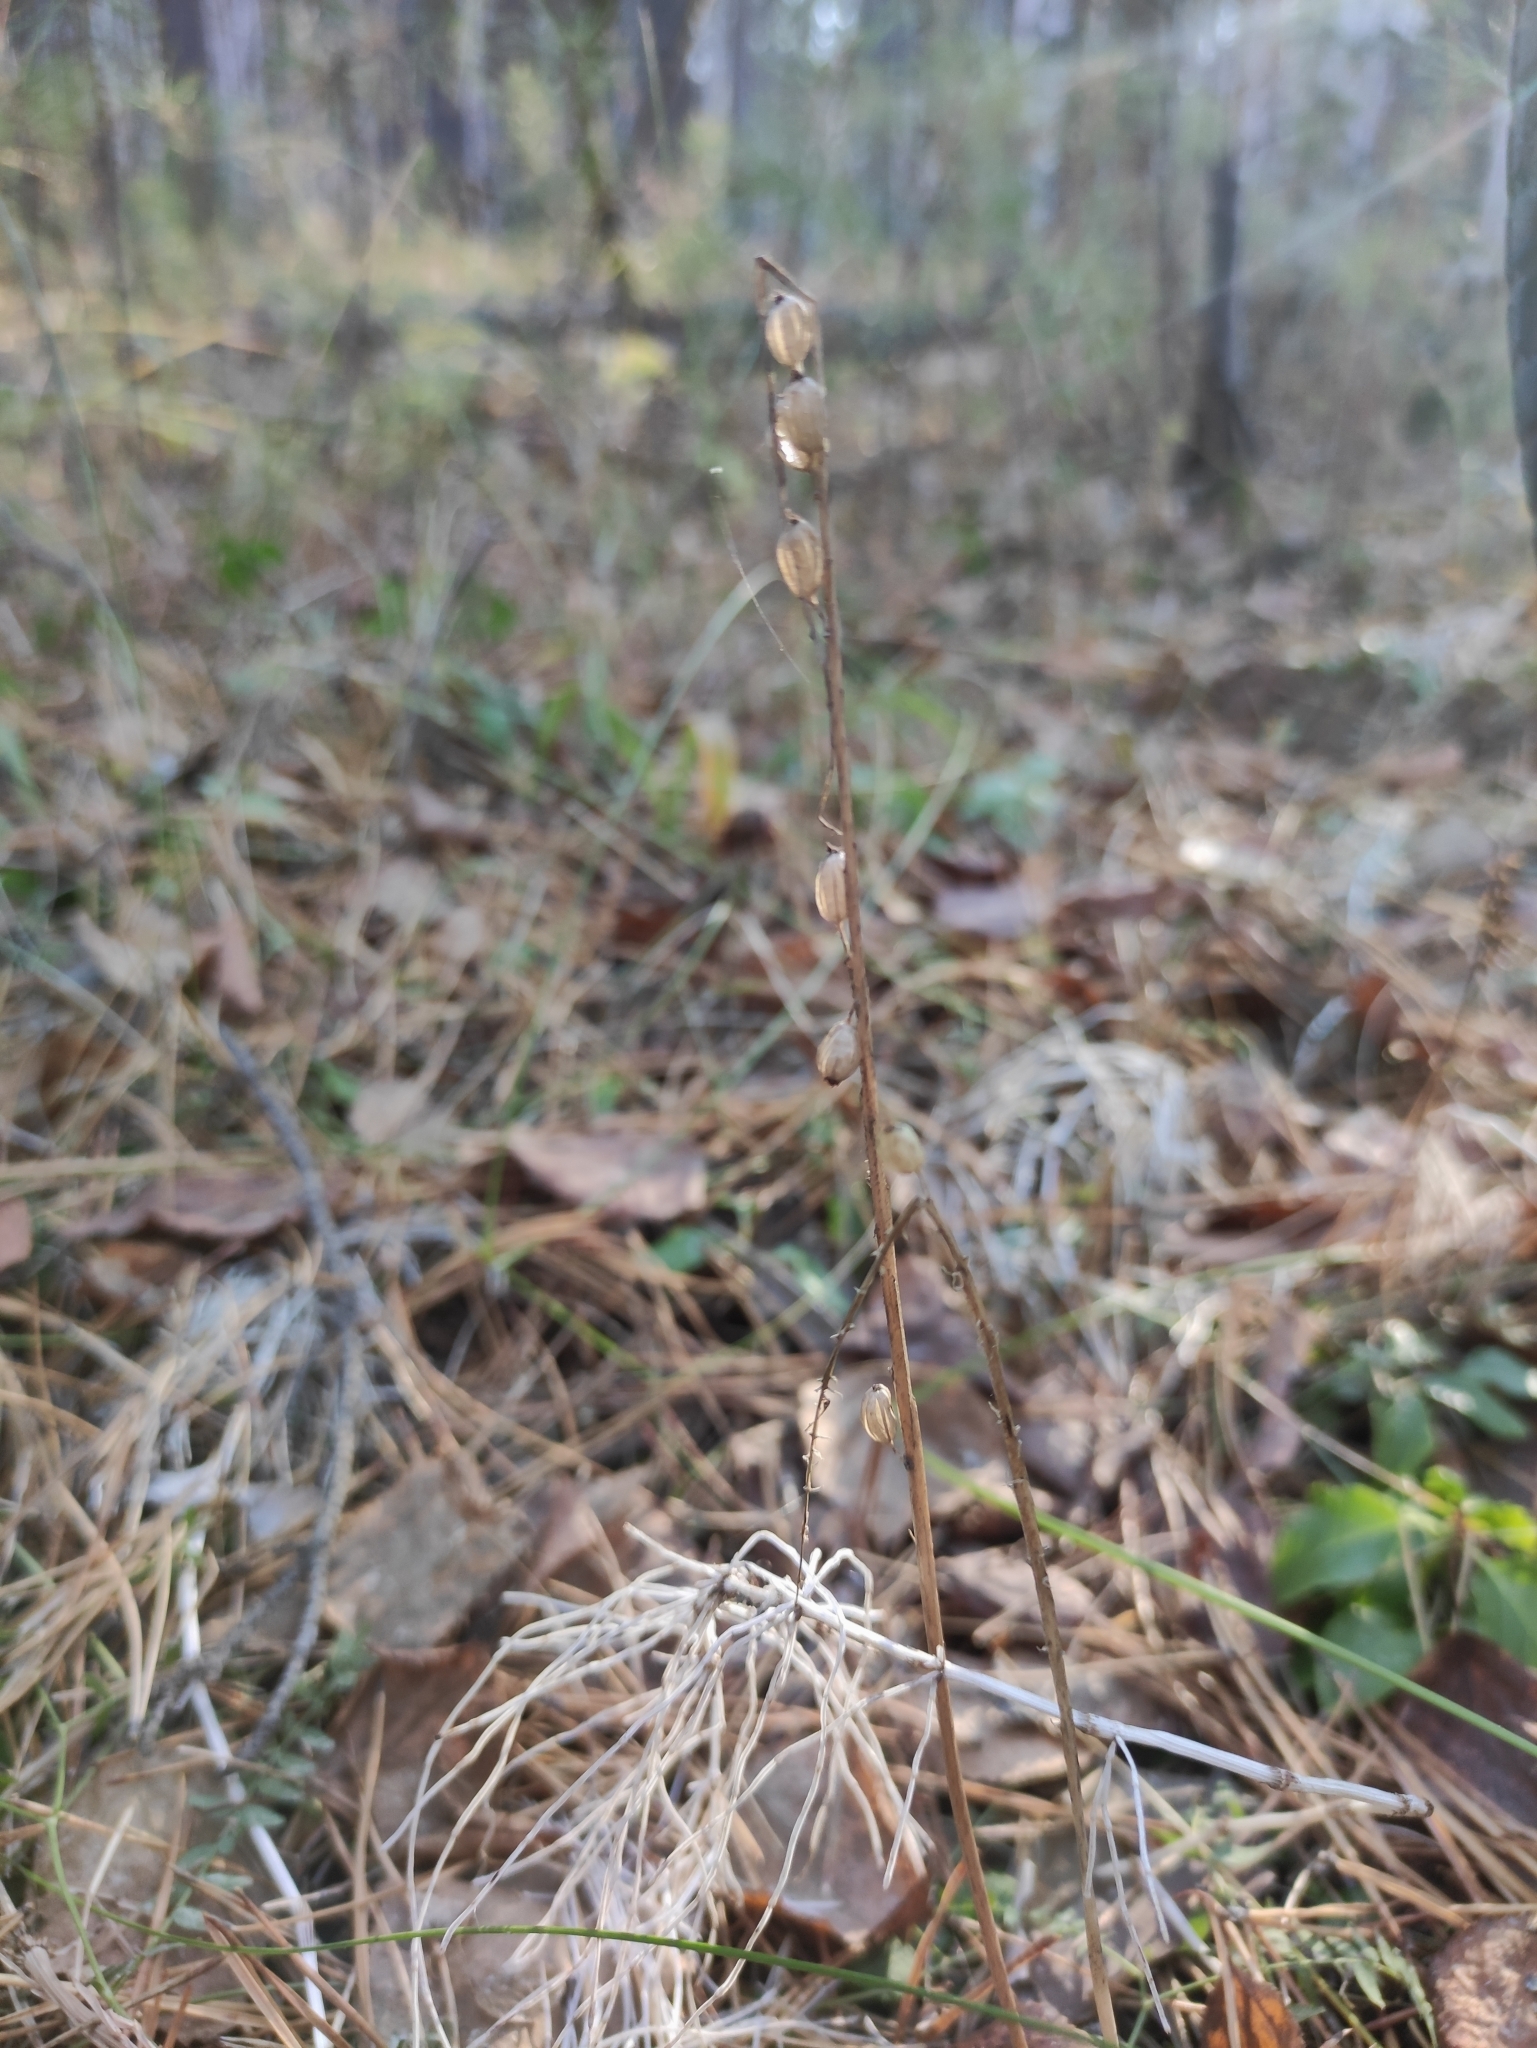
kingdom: Plantae
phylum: Tracheophyta
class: Liliopsida
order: Asparagales
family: Orchidaceae
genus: Malaxis
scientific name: Malaxis monophyllos
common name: White adder's-mouth
